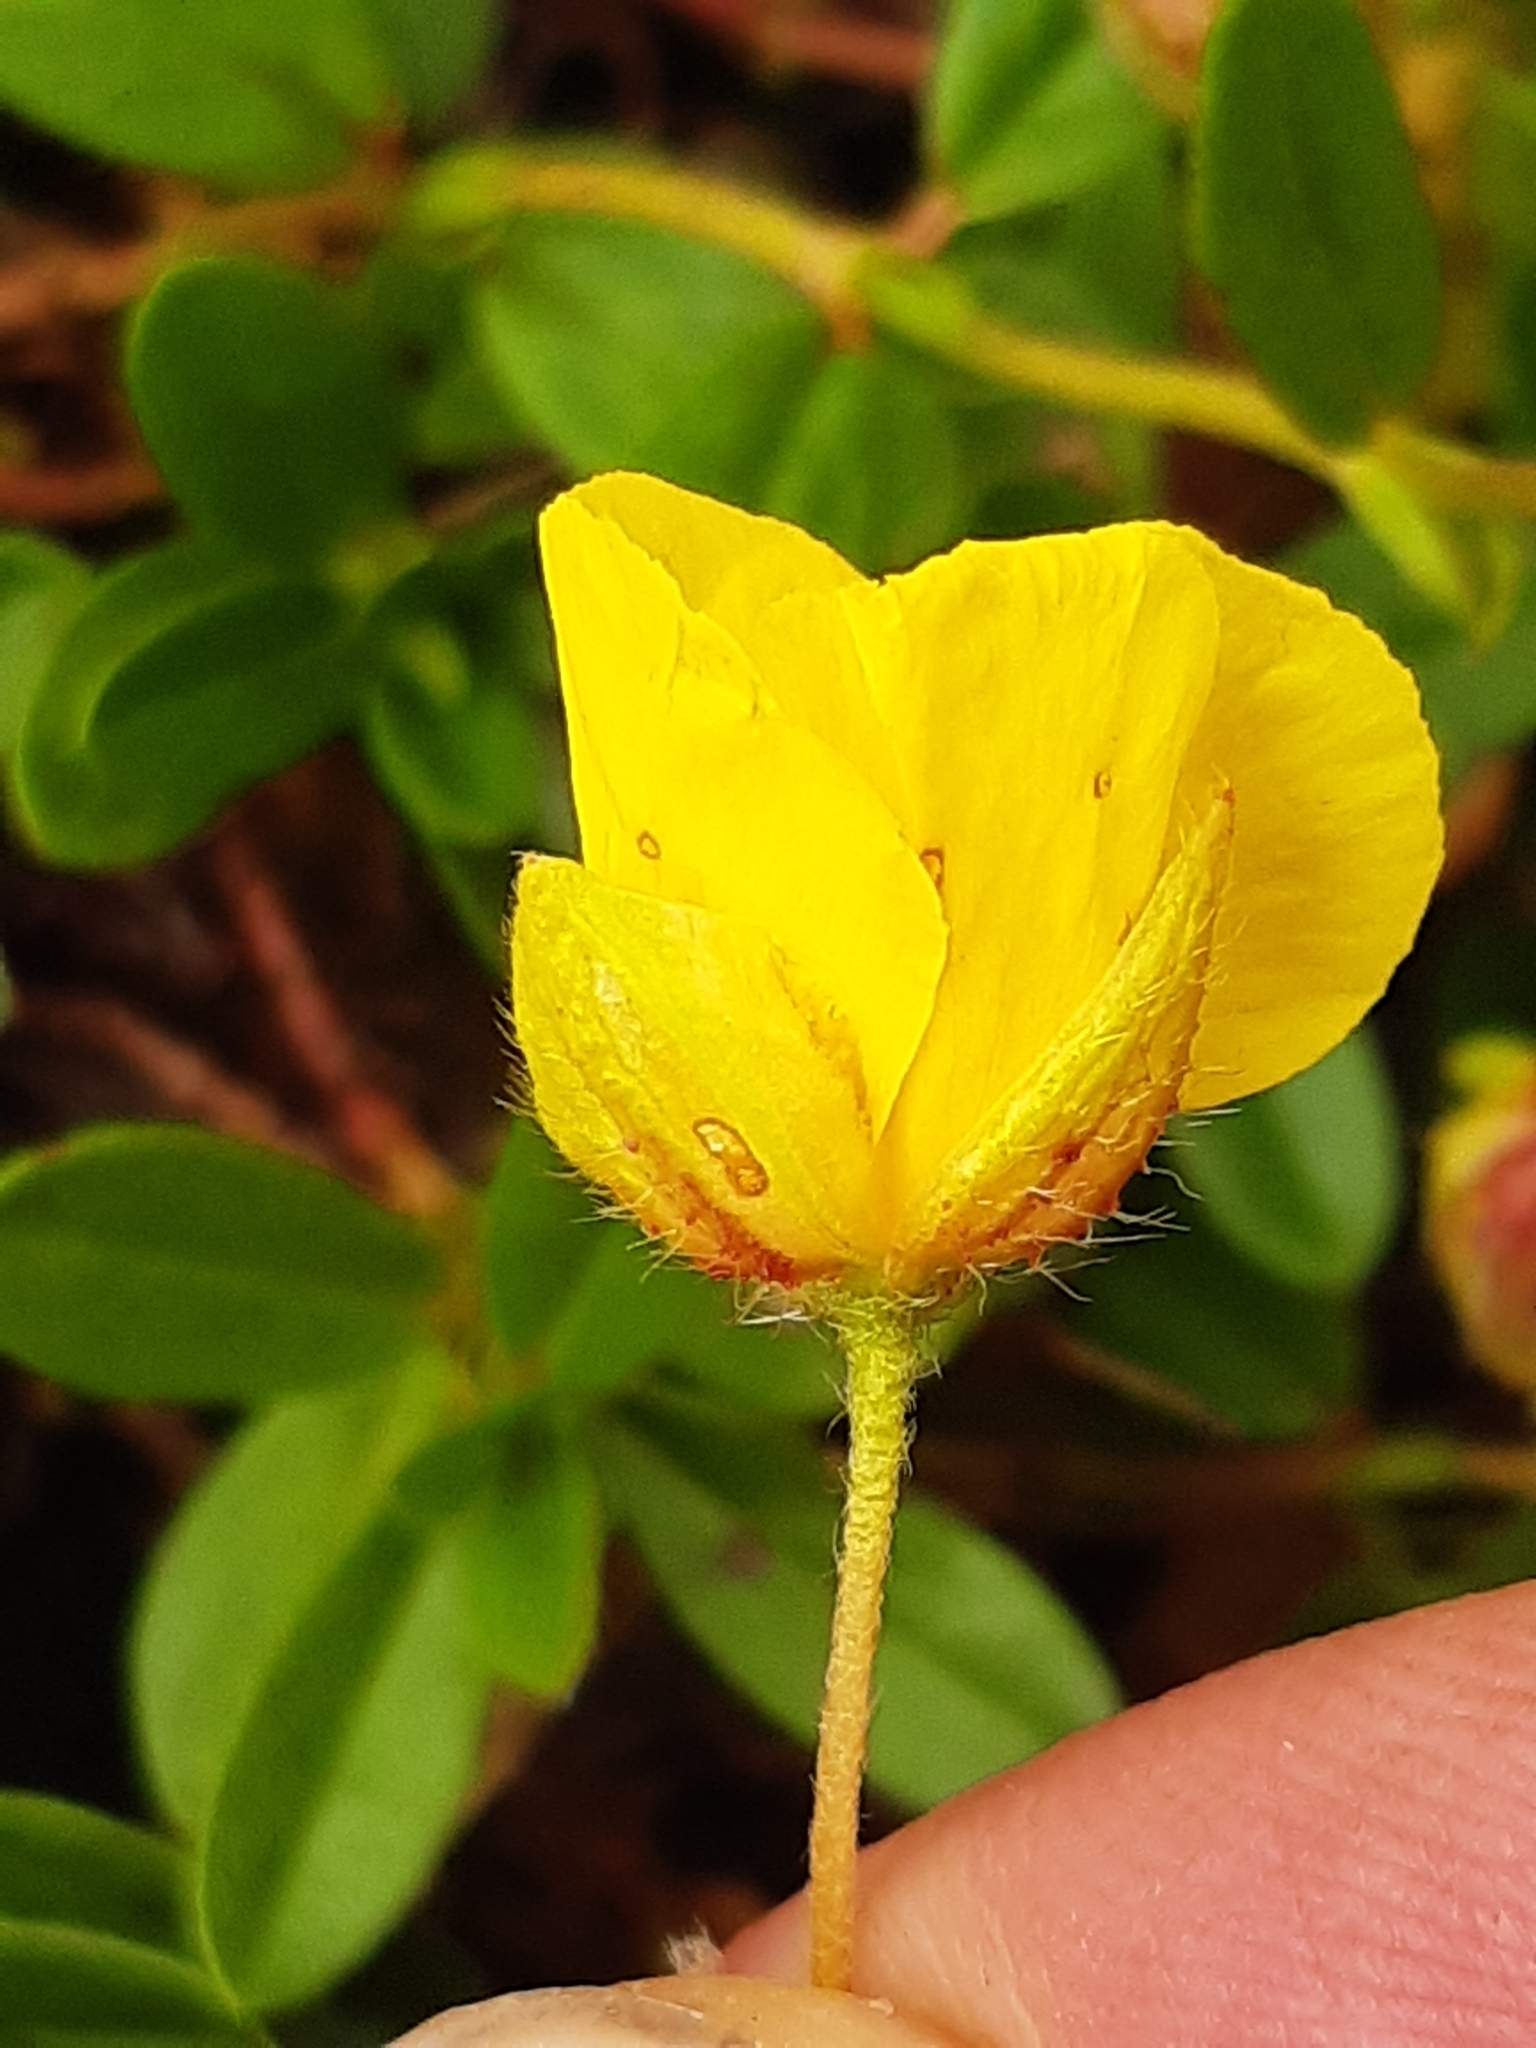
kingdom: Plantae
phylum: Tracheophyta
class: Magnoliopsida
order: Malvales
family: Cistaceae
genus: Helianthemum
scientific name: Helianthemum nummularium
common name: Common rock-rose
